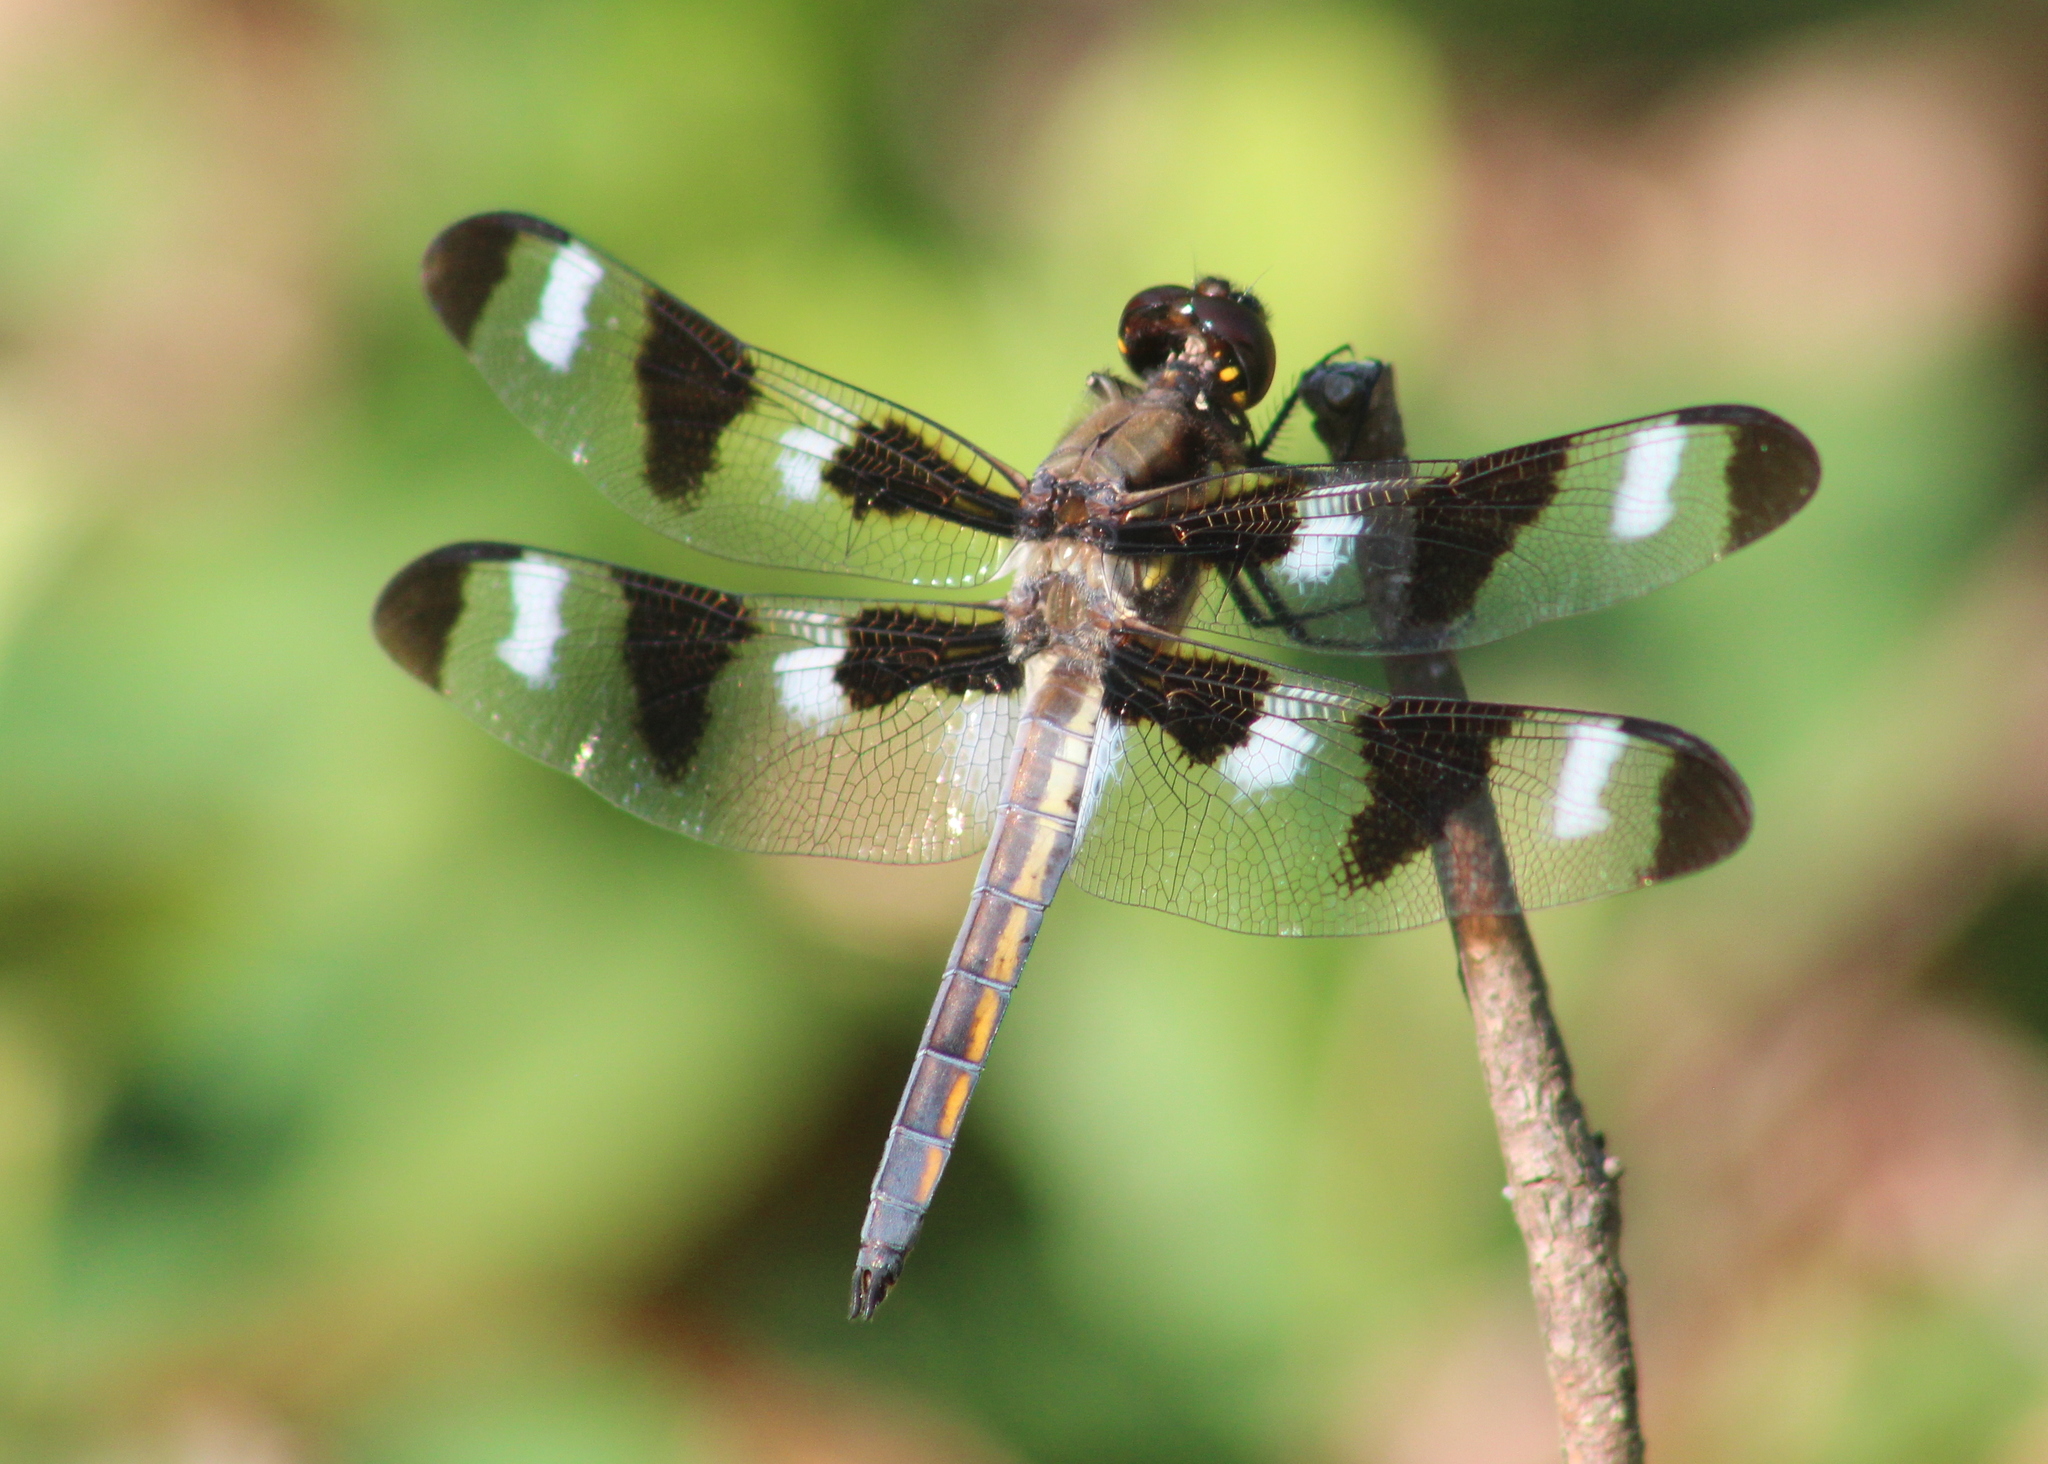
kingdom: Animalia
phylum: Arthropoda
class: Insecta
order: Odonata
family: Libellulidae
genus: Libellula
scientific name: Libellula pulchella
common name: Twelve-spotted skimmer
